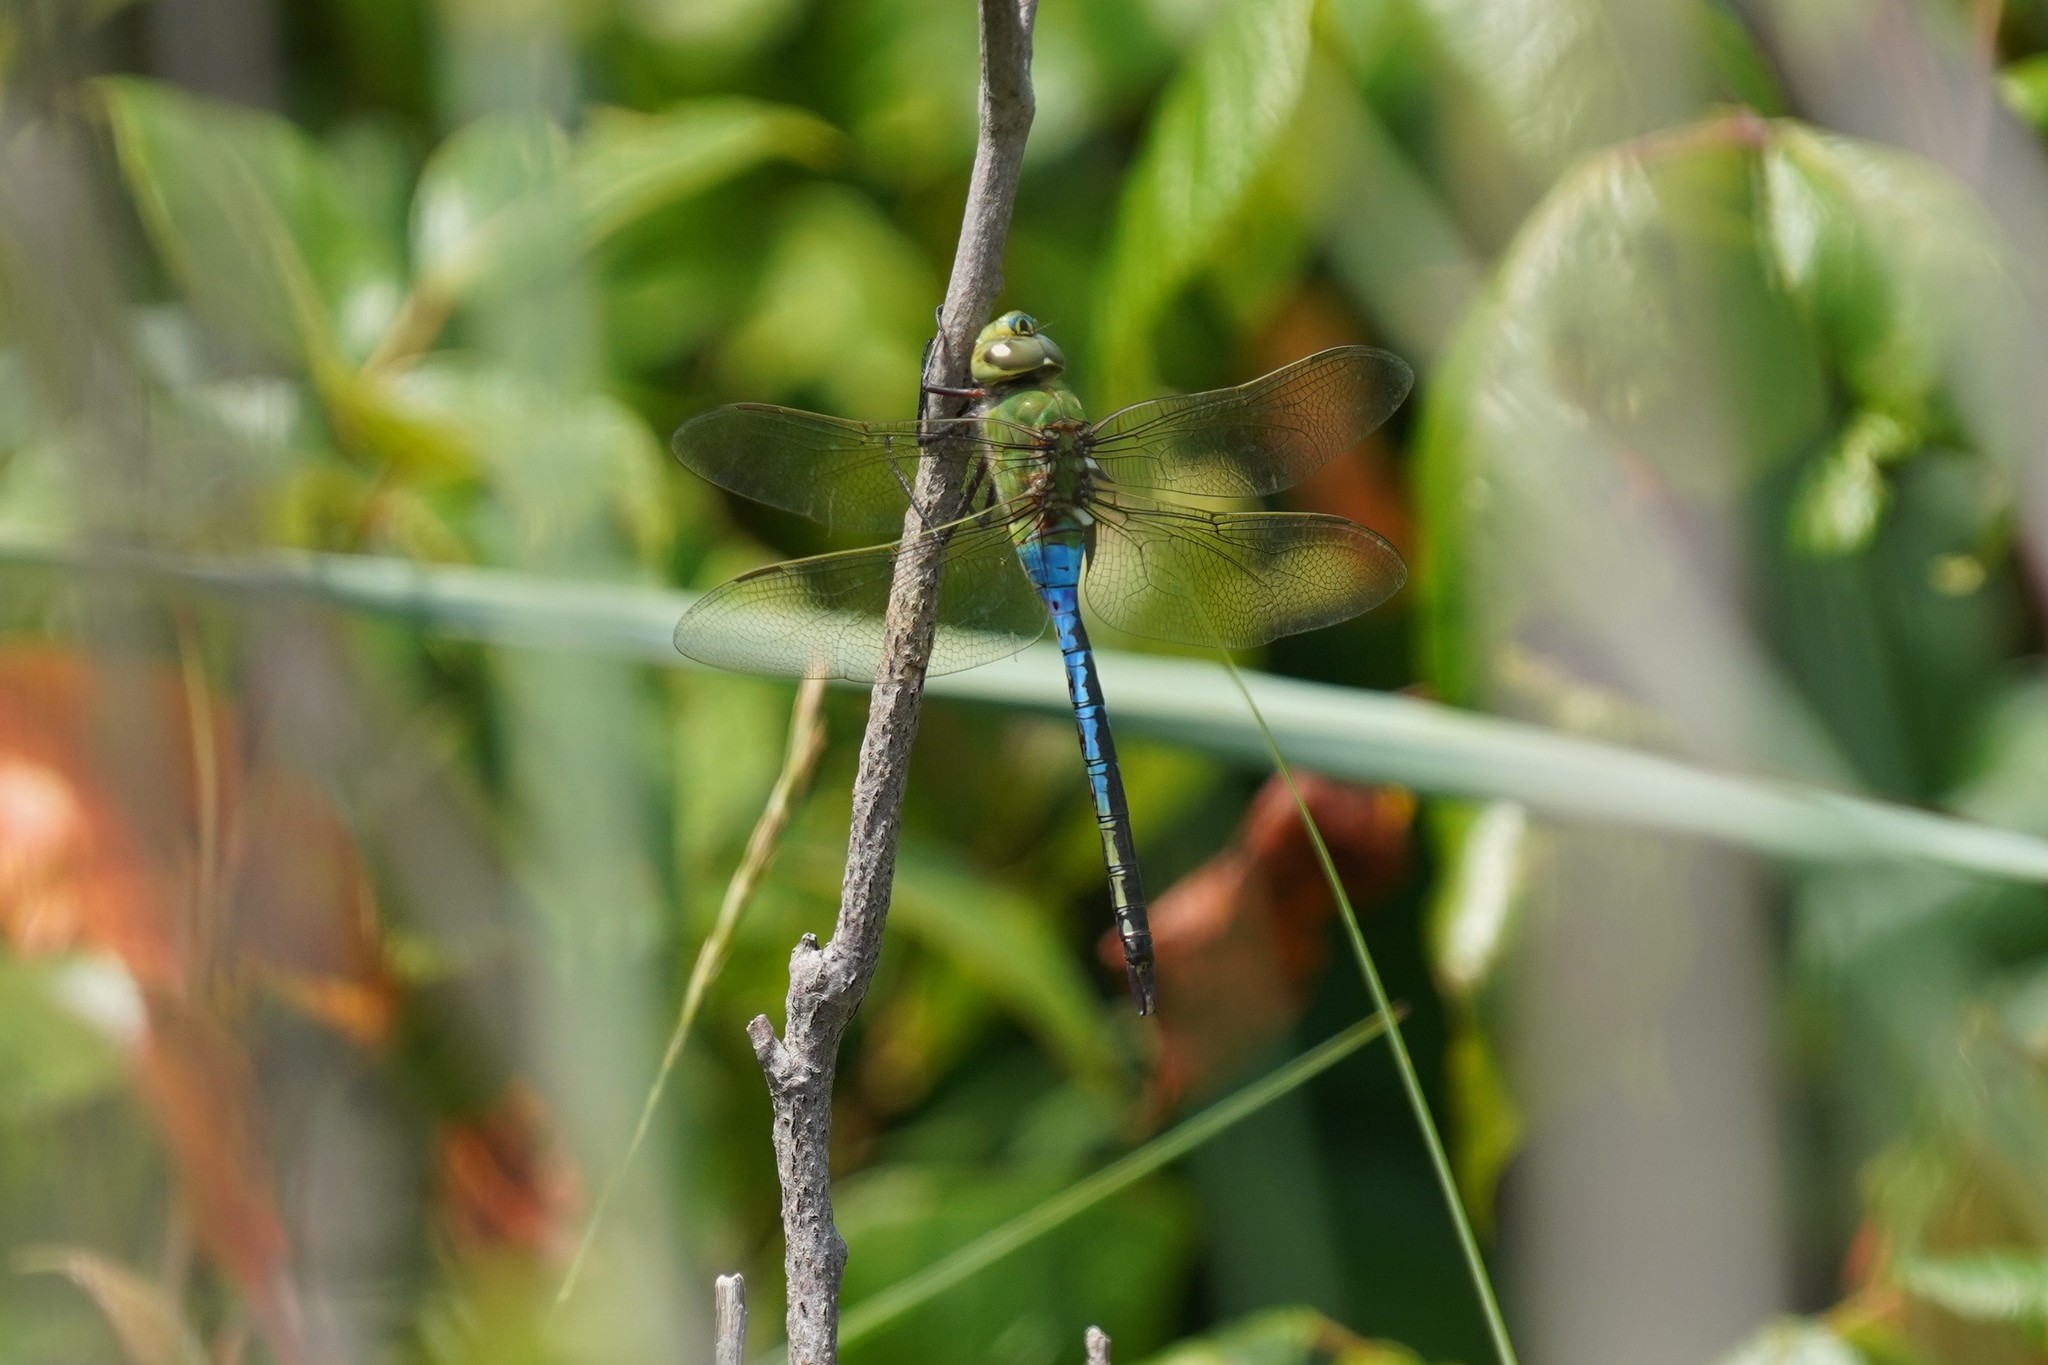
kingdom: Animalia
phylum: Arthropoda
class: Insecta
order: Odonata
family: Aeshnidae
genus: Anax
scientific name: Anax junius
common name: Common green darner
